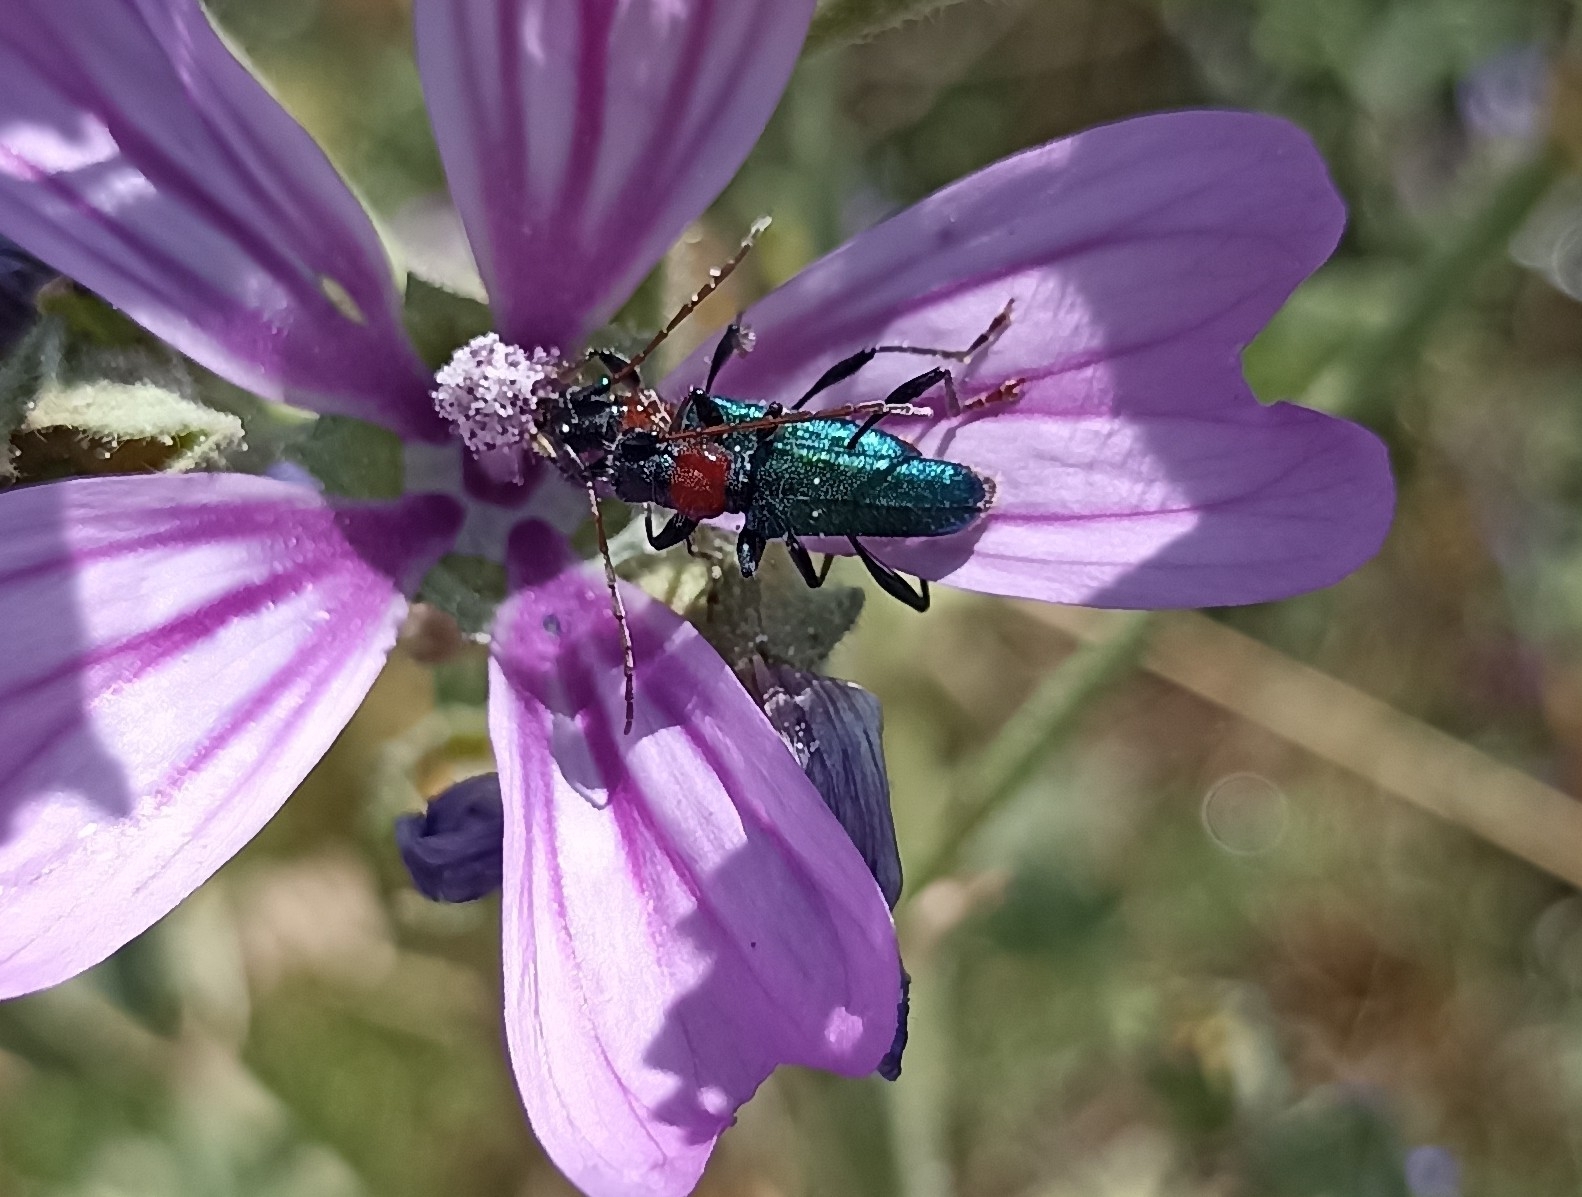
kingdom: Animalia
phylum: Arthropoda
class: Insecta
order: Coleoptera
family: Cerambycidae
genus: Certallum
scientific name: Certallum ebulinum
